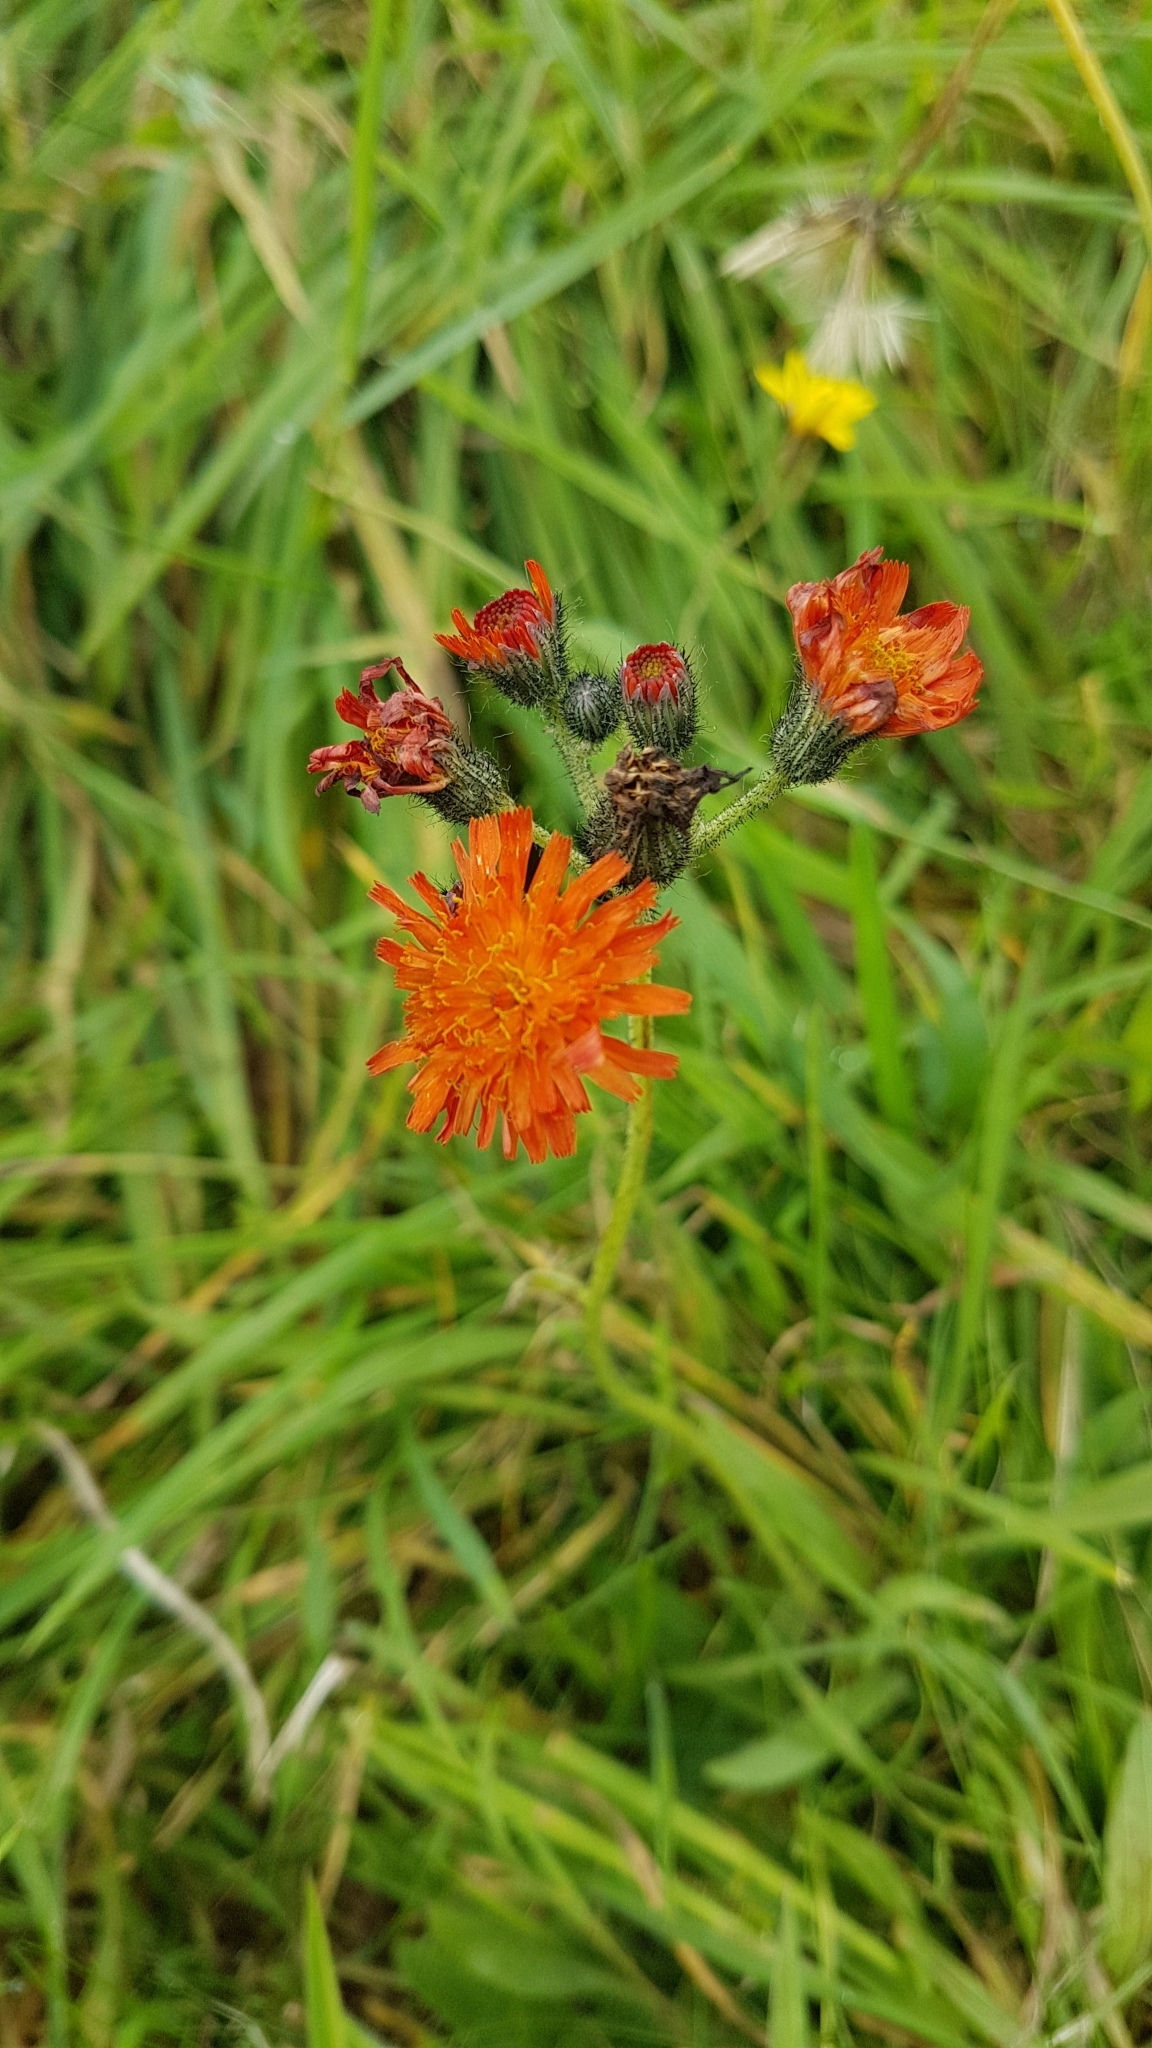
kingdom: Plantae
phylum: Tracheophyta
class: Magnoliopsida
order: Asterales
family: Asteraceae
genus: Pilosella
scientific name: Pilosella aurantiaca
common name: Fox-and-cubs
